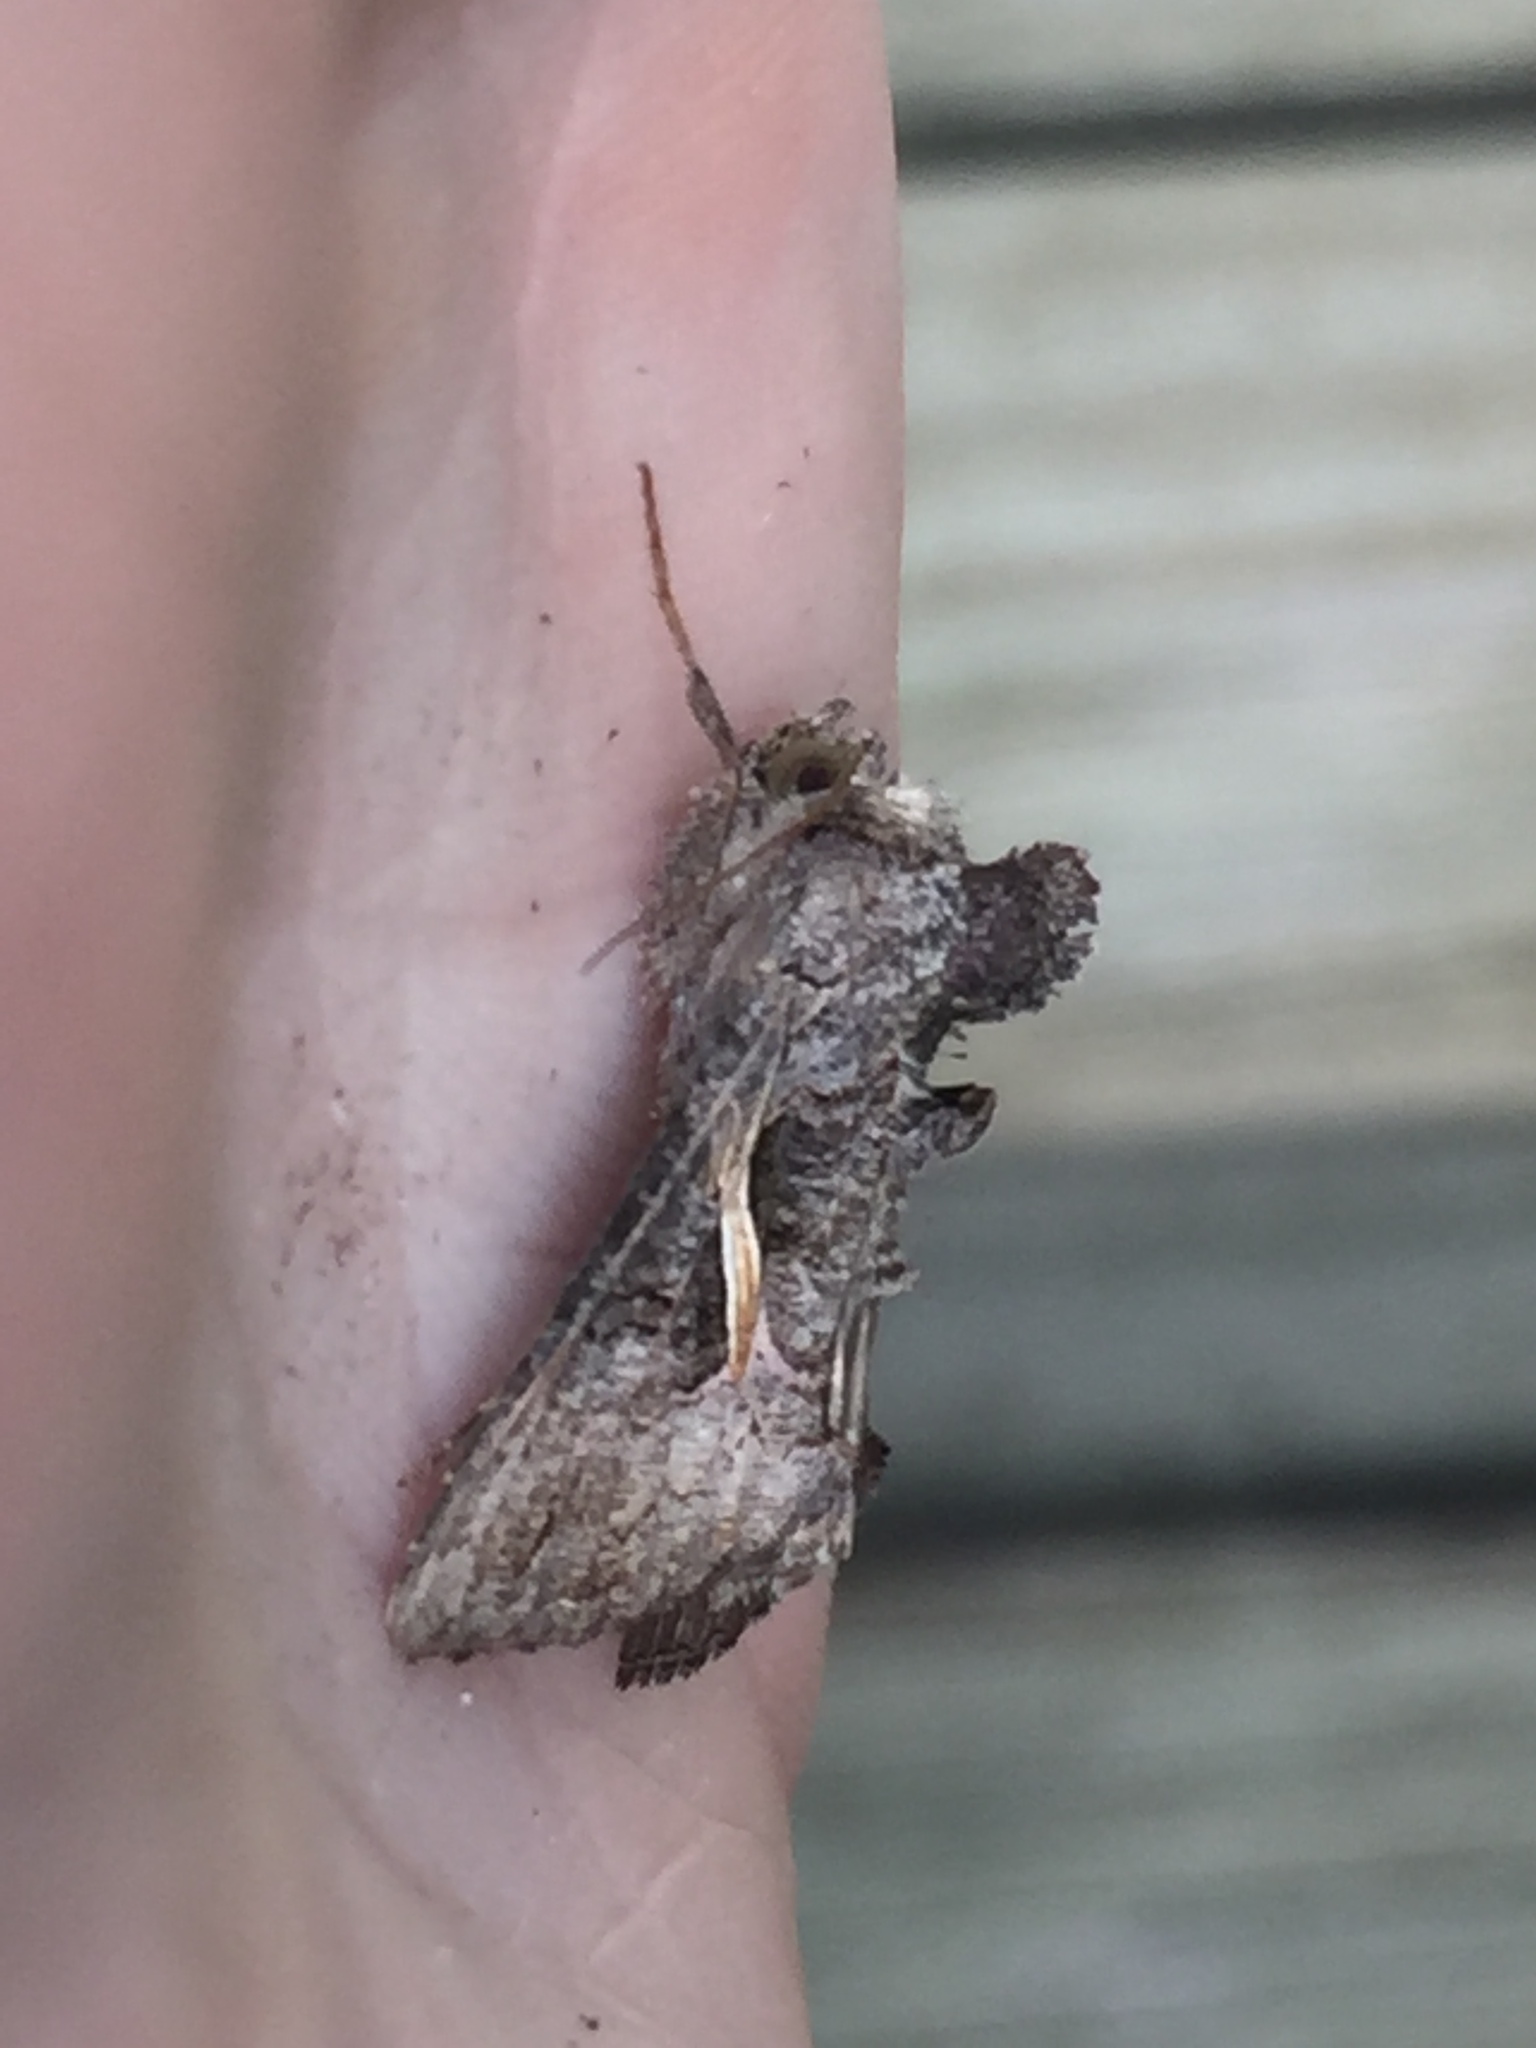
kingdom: Animalia
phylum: Arthropoda
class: Insecta
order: Lepidoptera
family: Noctuidae
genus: Ctenoplusia
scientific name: Ctenoplusia albostriata
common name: Moth
